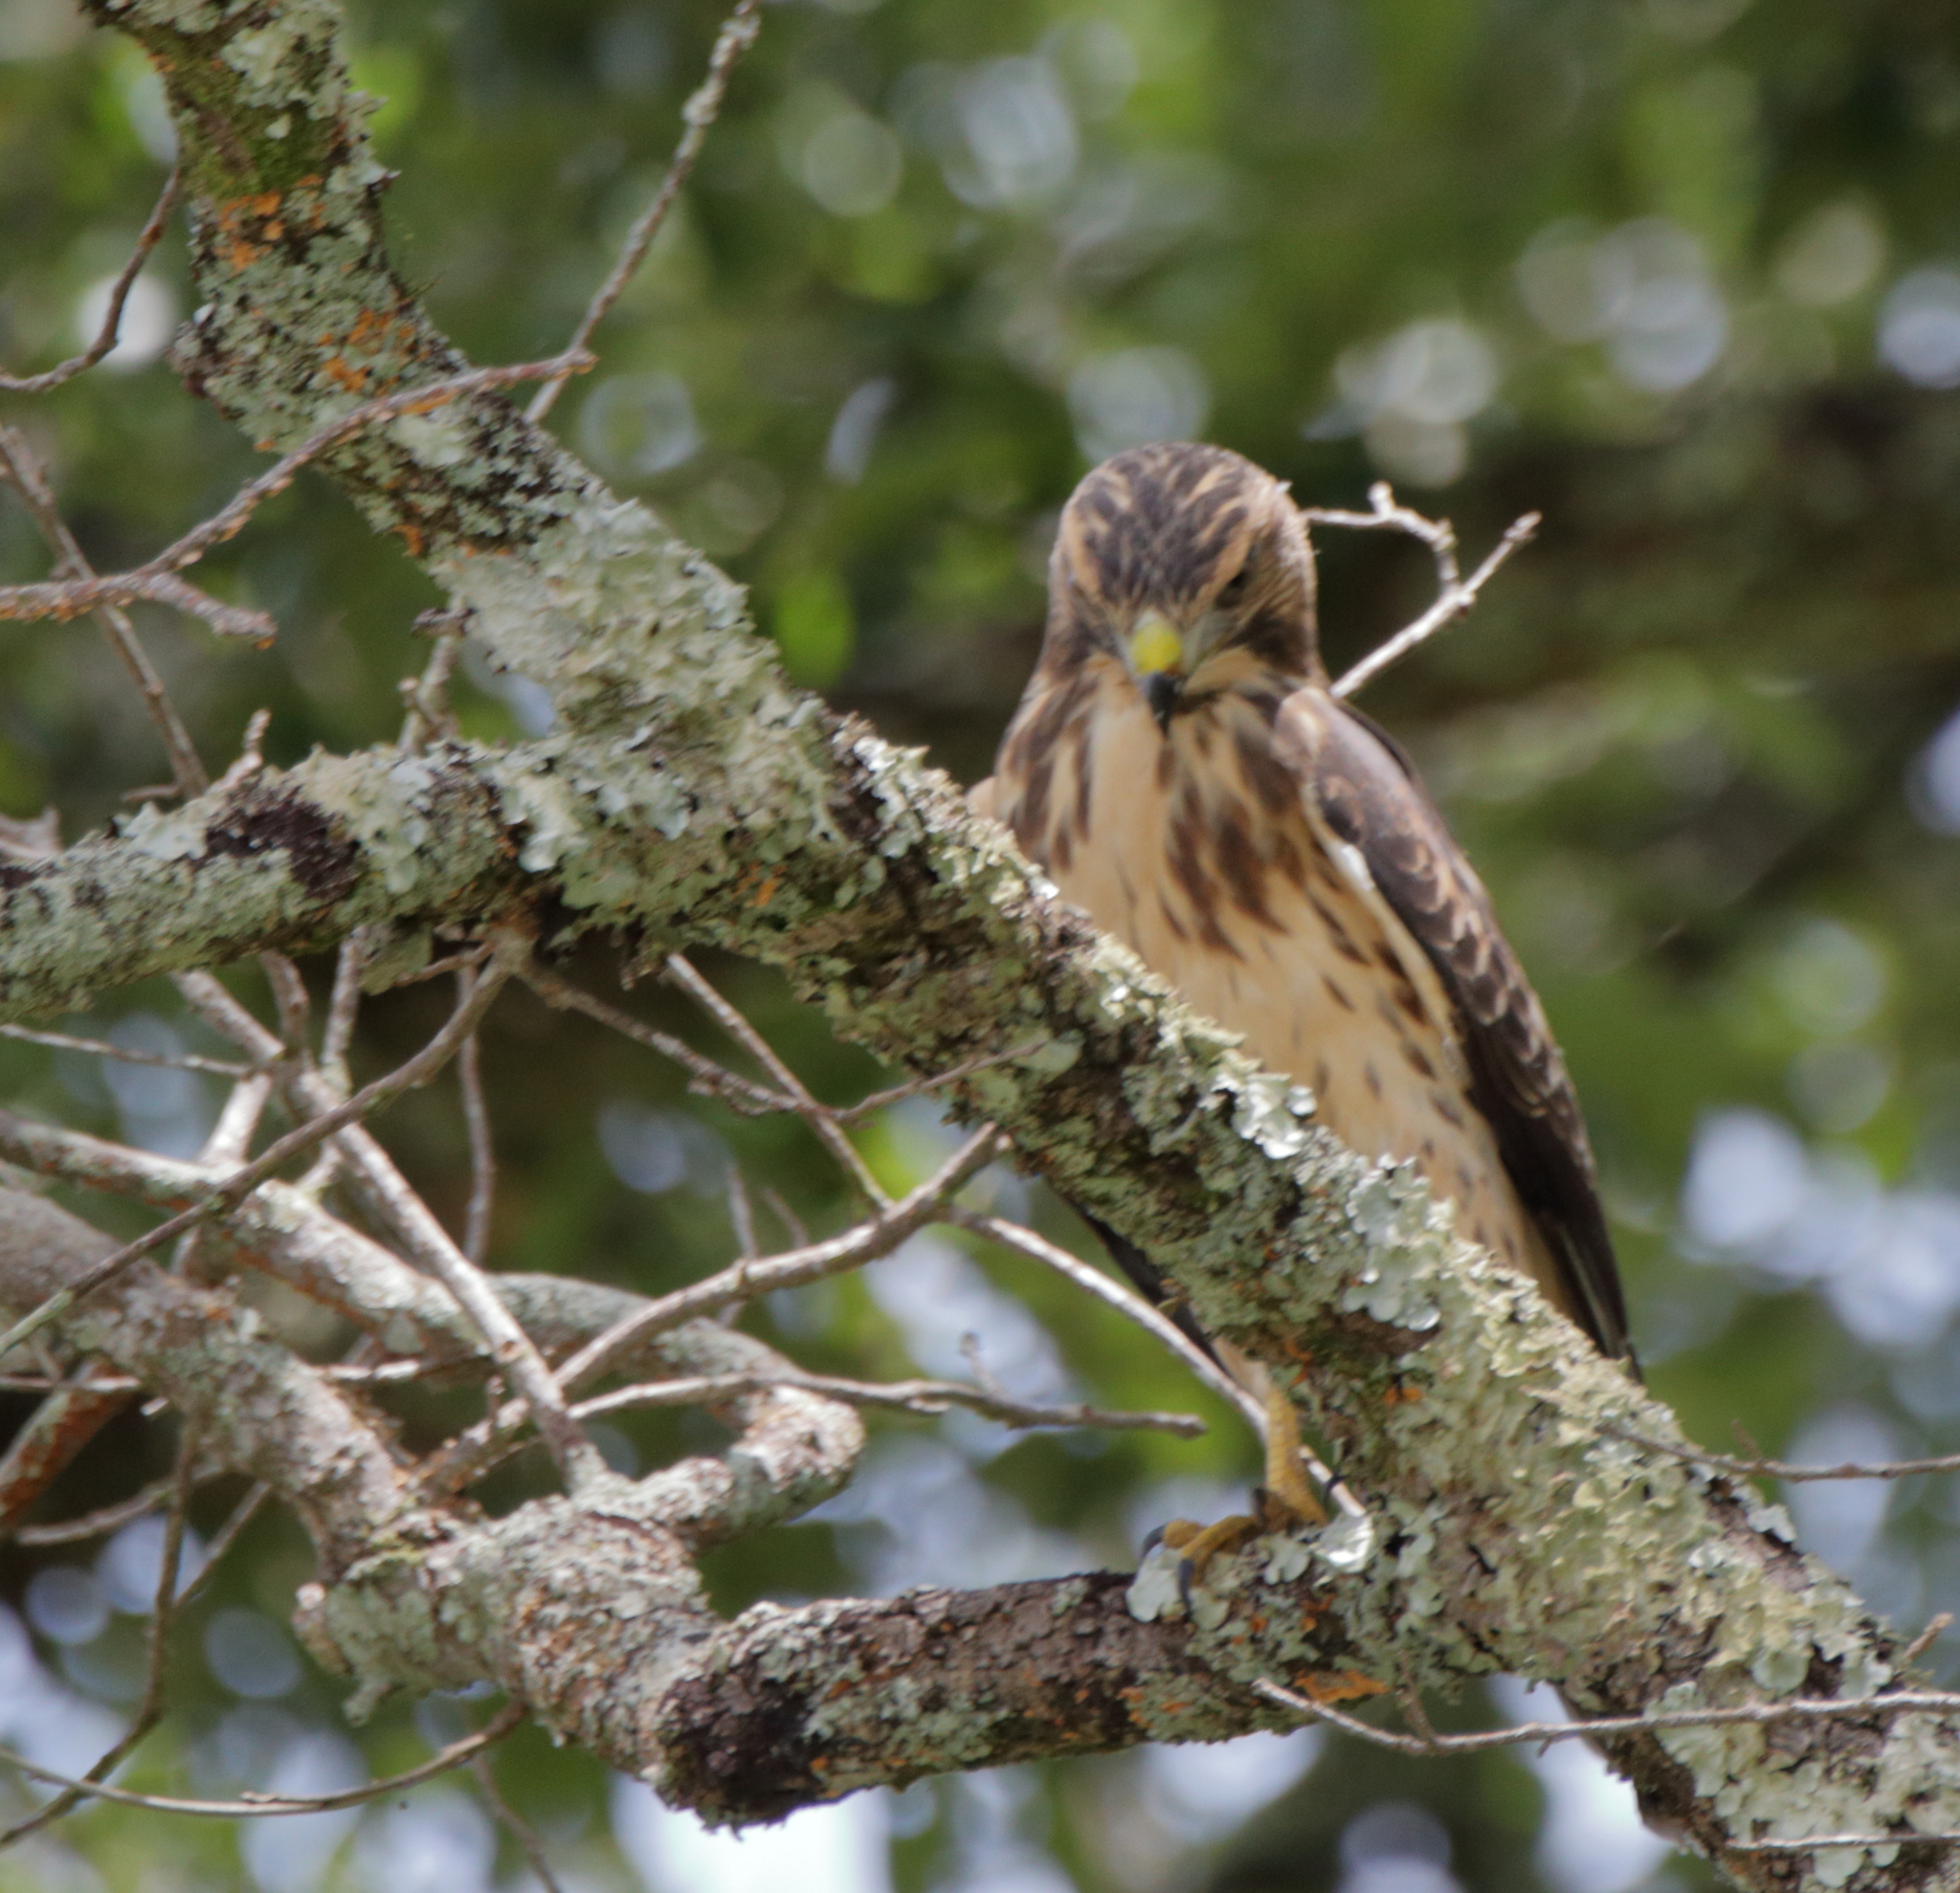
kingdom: Animalia
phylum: Chordata
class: Aves
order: Accipitriformes
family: Accipitridae
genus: Buteo
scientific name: Buteo platypterus
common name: Broad-winged hawk
